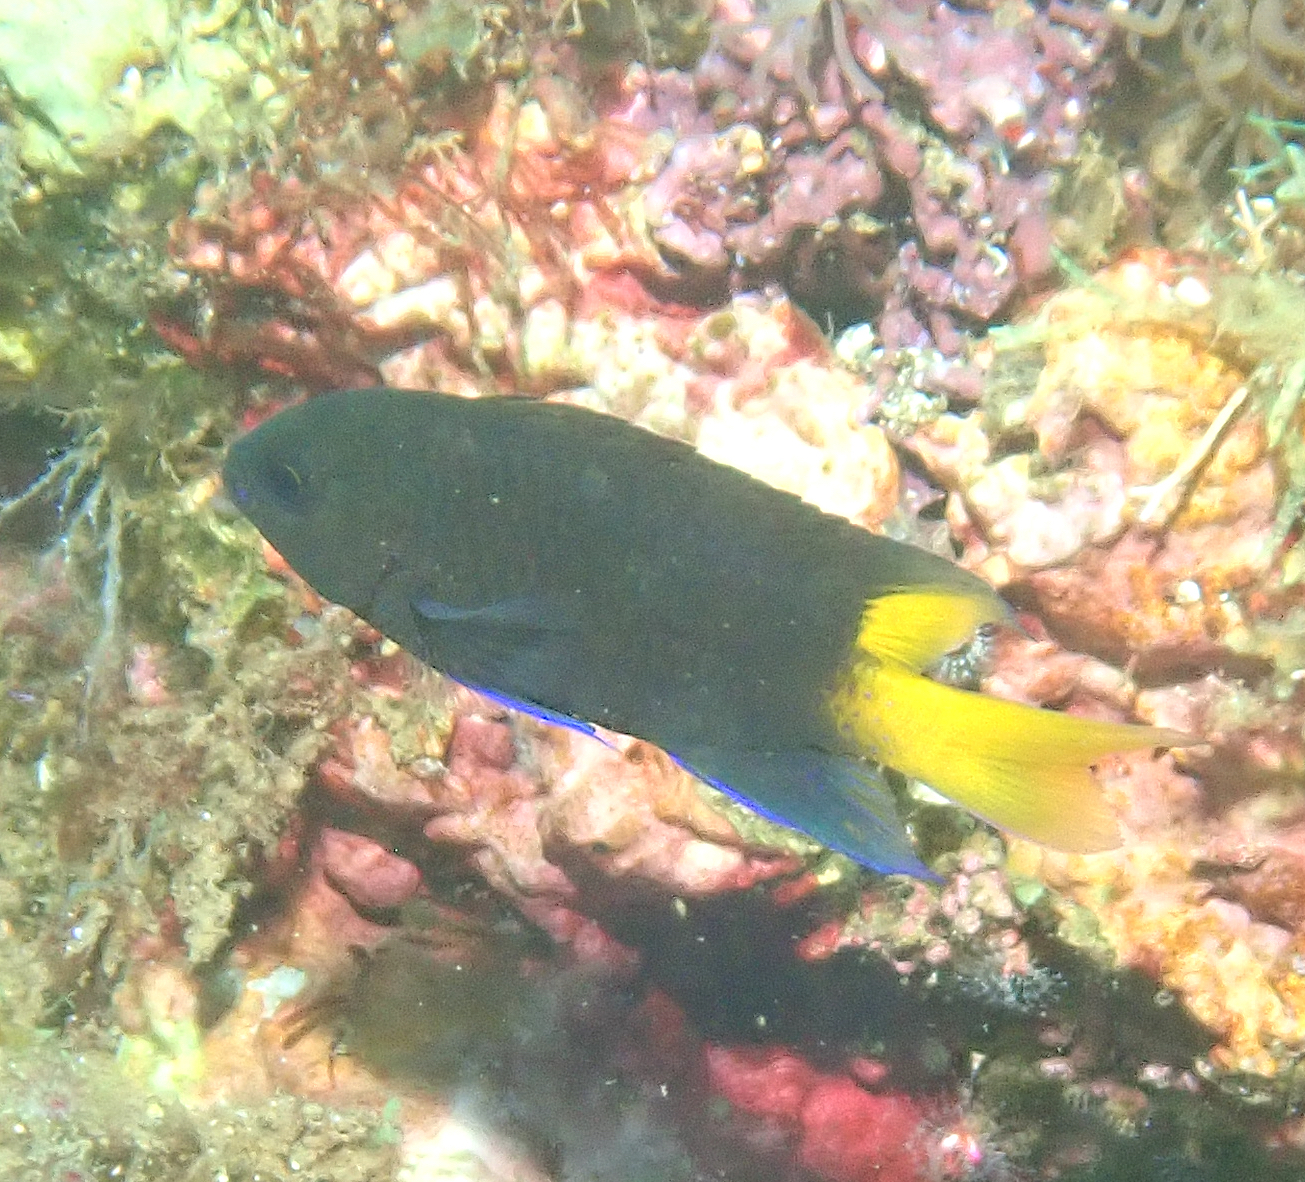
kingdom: Animalia
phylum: Chordata
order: Perciformes
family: Pomacentridae
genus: Neopomacentrus
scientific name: Neopomacentrus violascens
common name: Violet demoiselle
